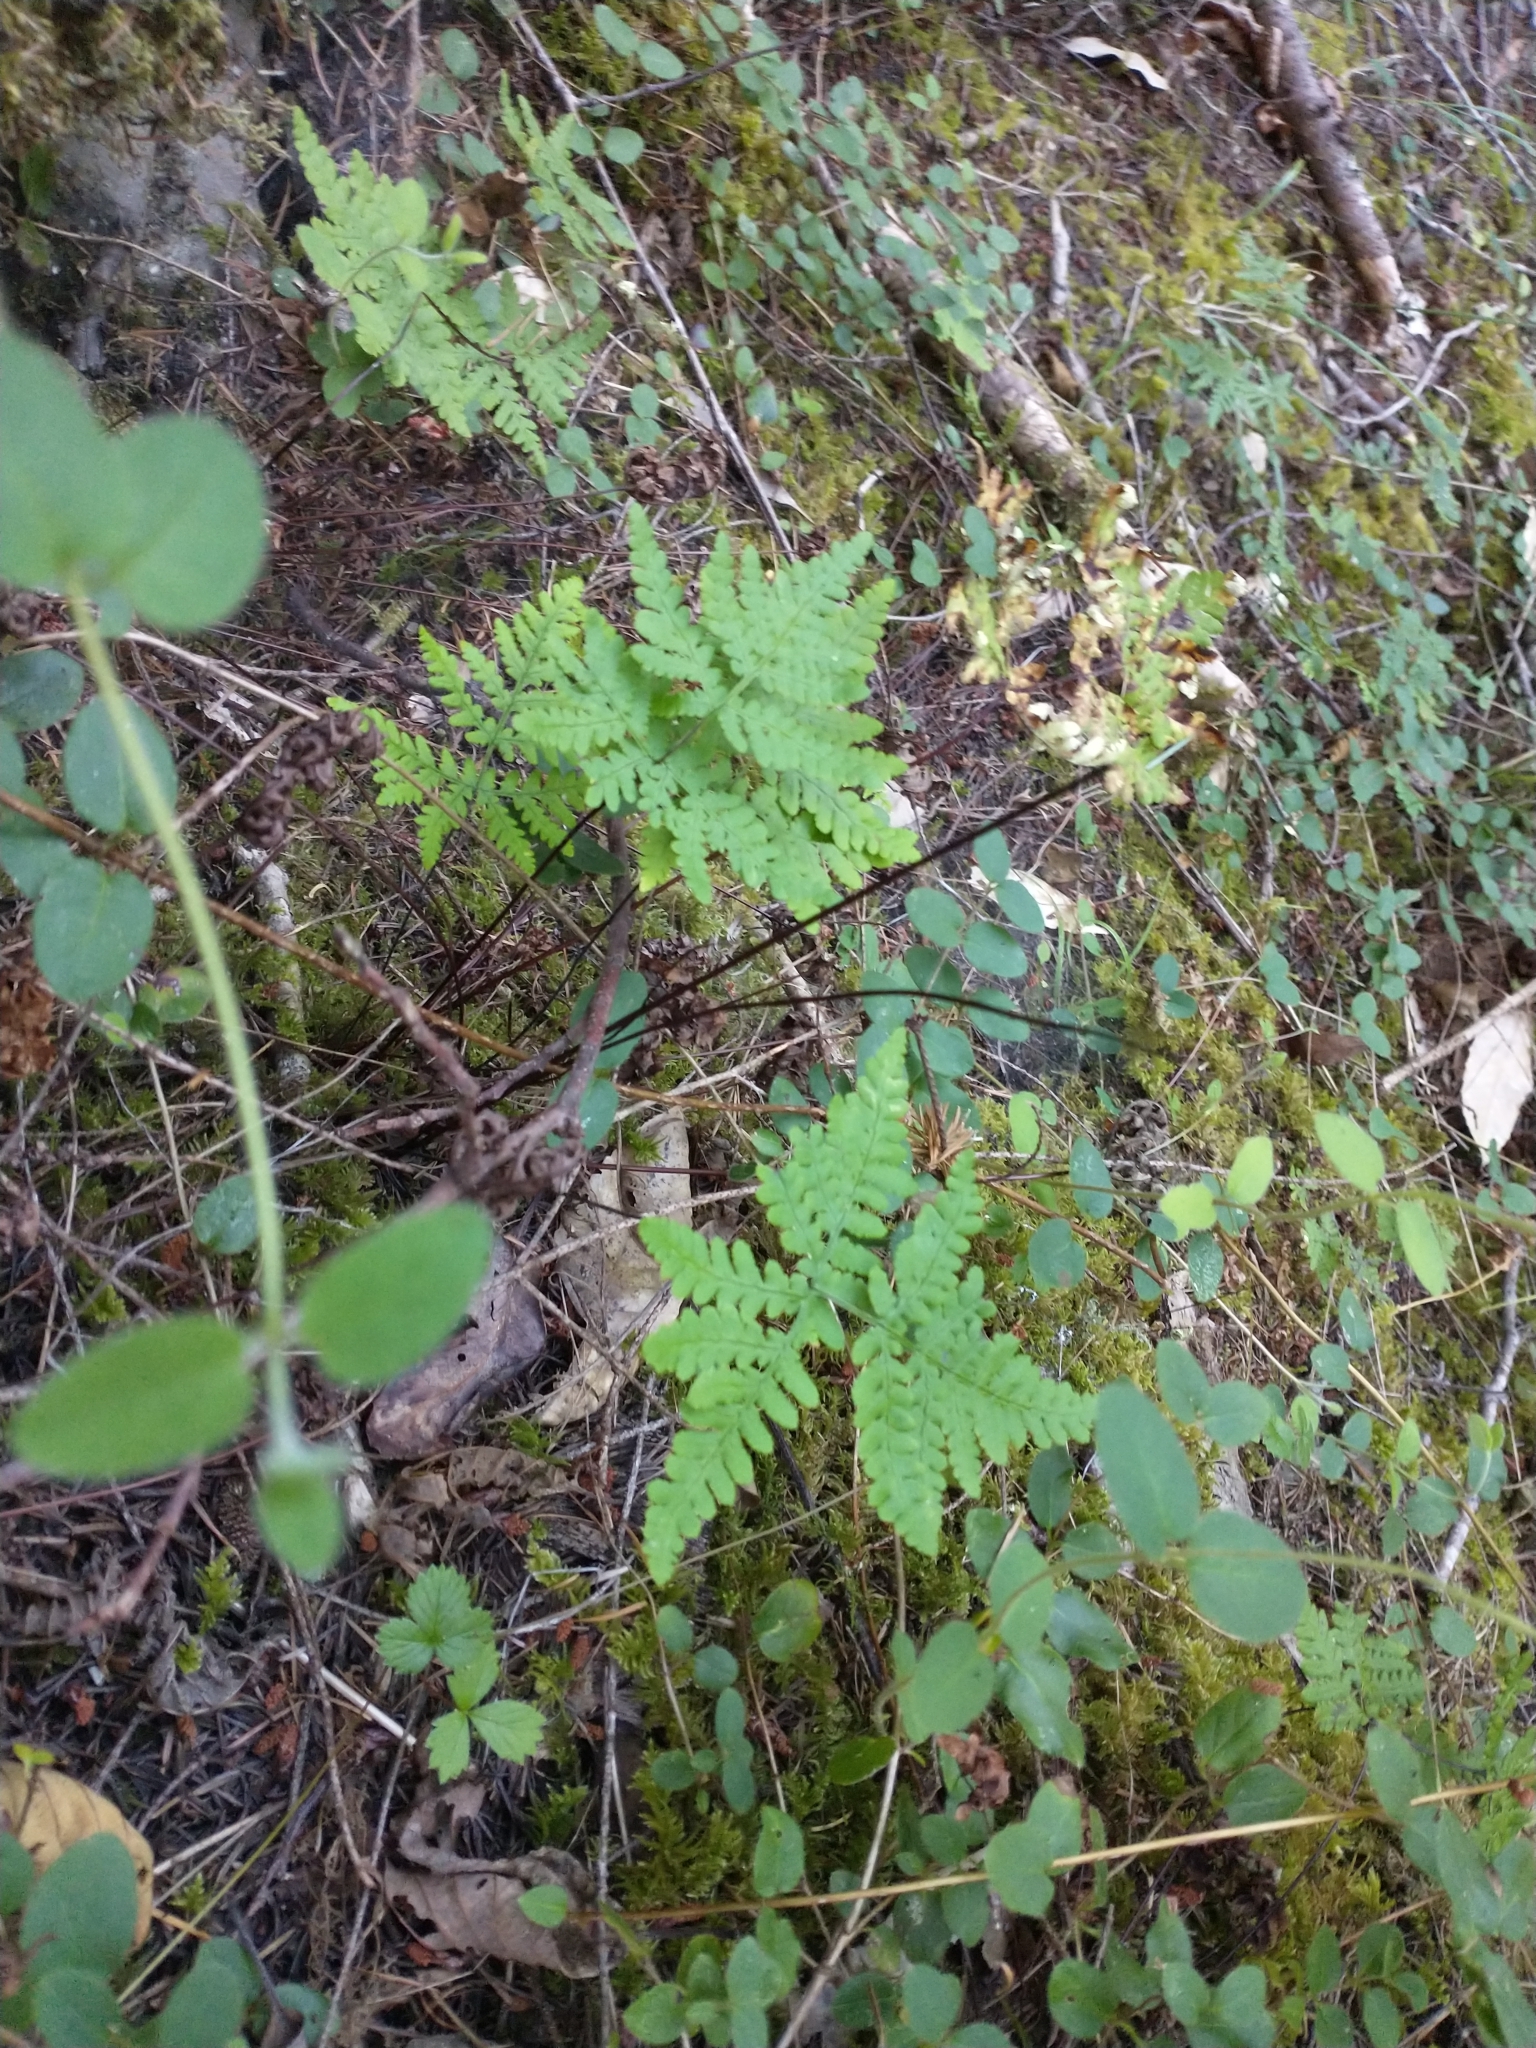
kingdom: Plantae
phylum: Tracheophyta
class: Polypodiopsida
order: Polypodiales
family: Pteridaceae
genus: Pentagramma
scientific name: Pentagramma triangularis
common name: Gold fern
